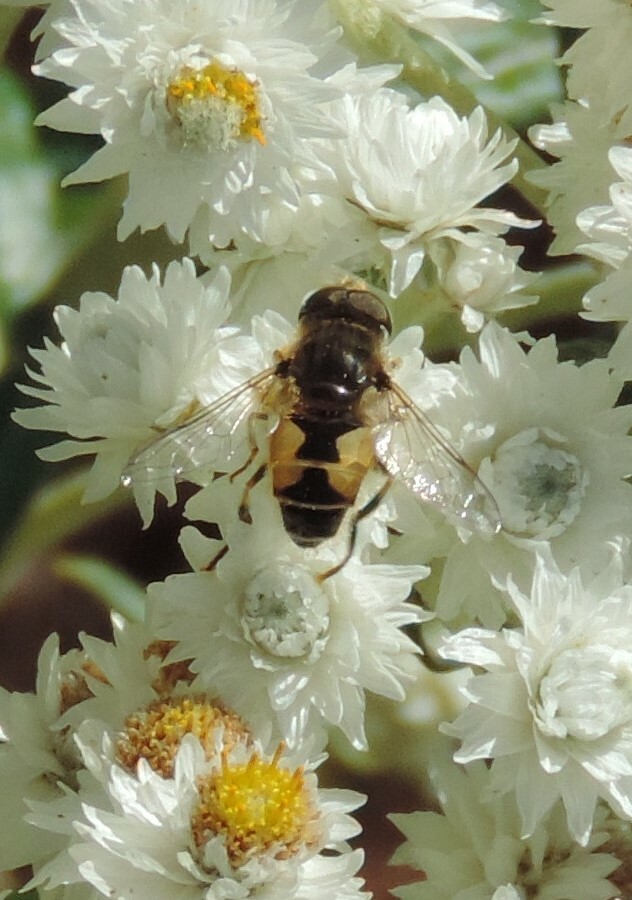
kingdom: Animalia
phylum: Arthropoda
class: Insecta
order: Diptera
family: Syrphidae
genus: Eristalis
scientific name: Eristalis arbustorum
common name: Hover fly
